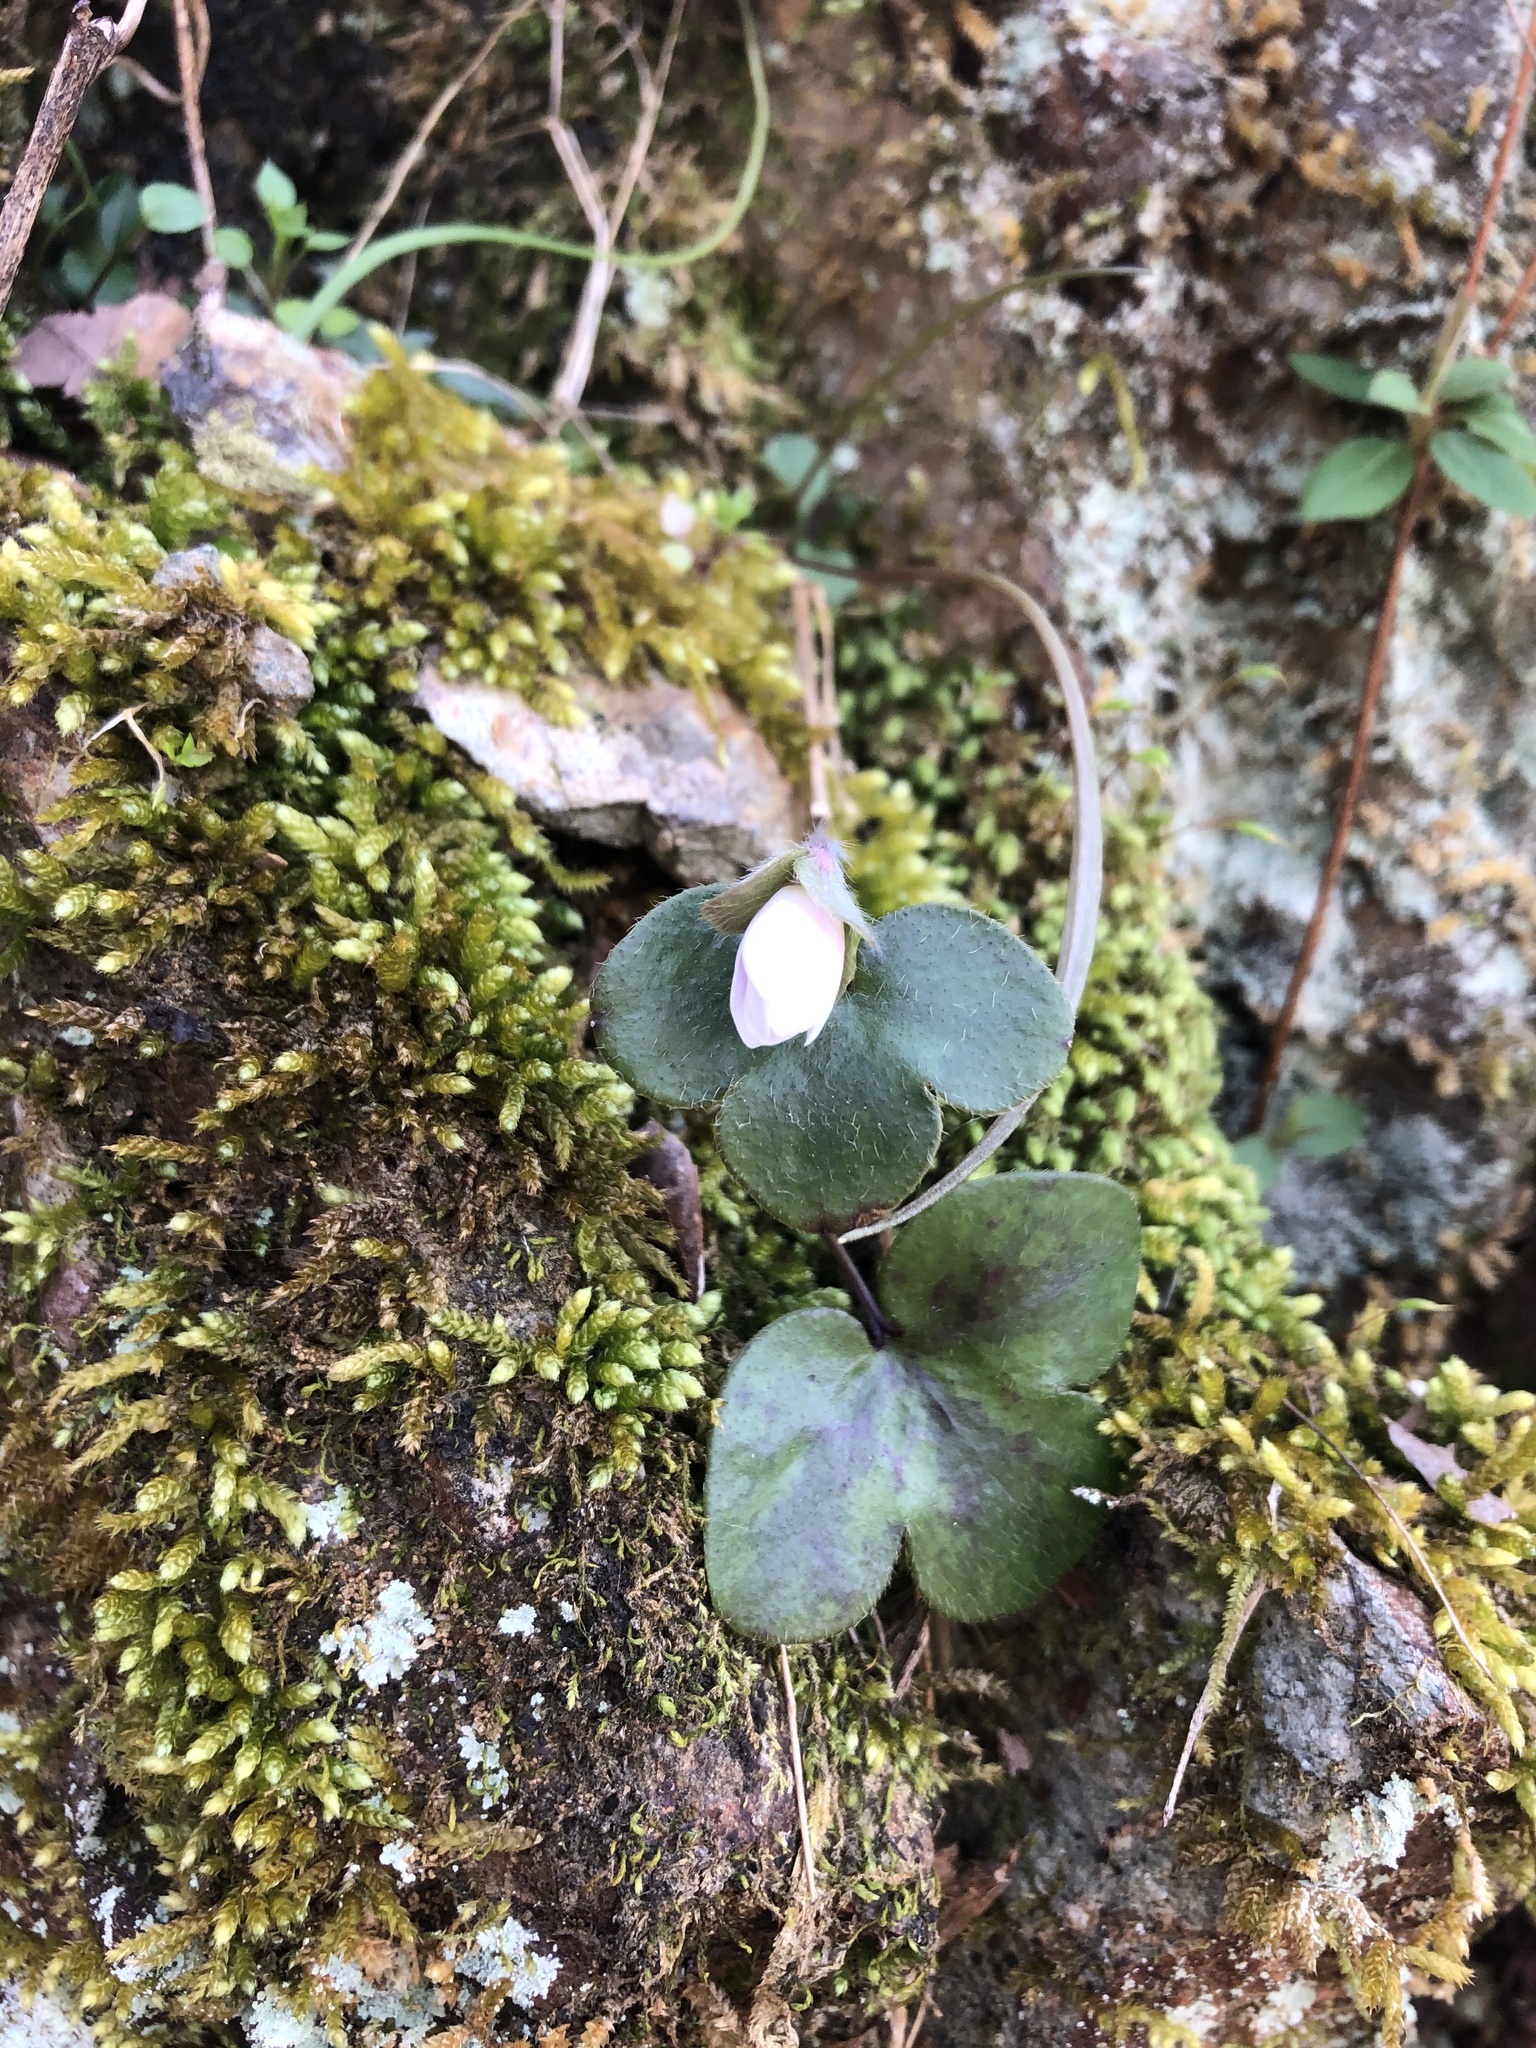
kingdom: Plantae
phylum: Tracheophyta
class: Magnoliopsida
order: Ranunculales
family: Ranunculaceae
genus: Hepatica
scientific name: Hepatica americana
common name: American hepatica
